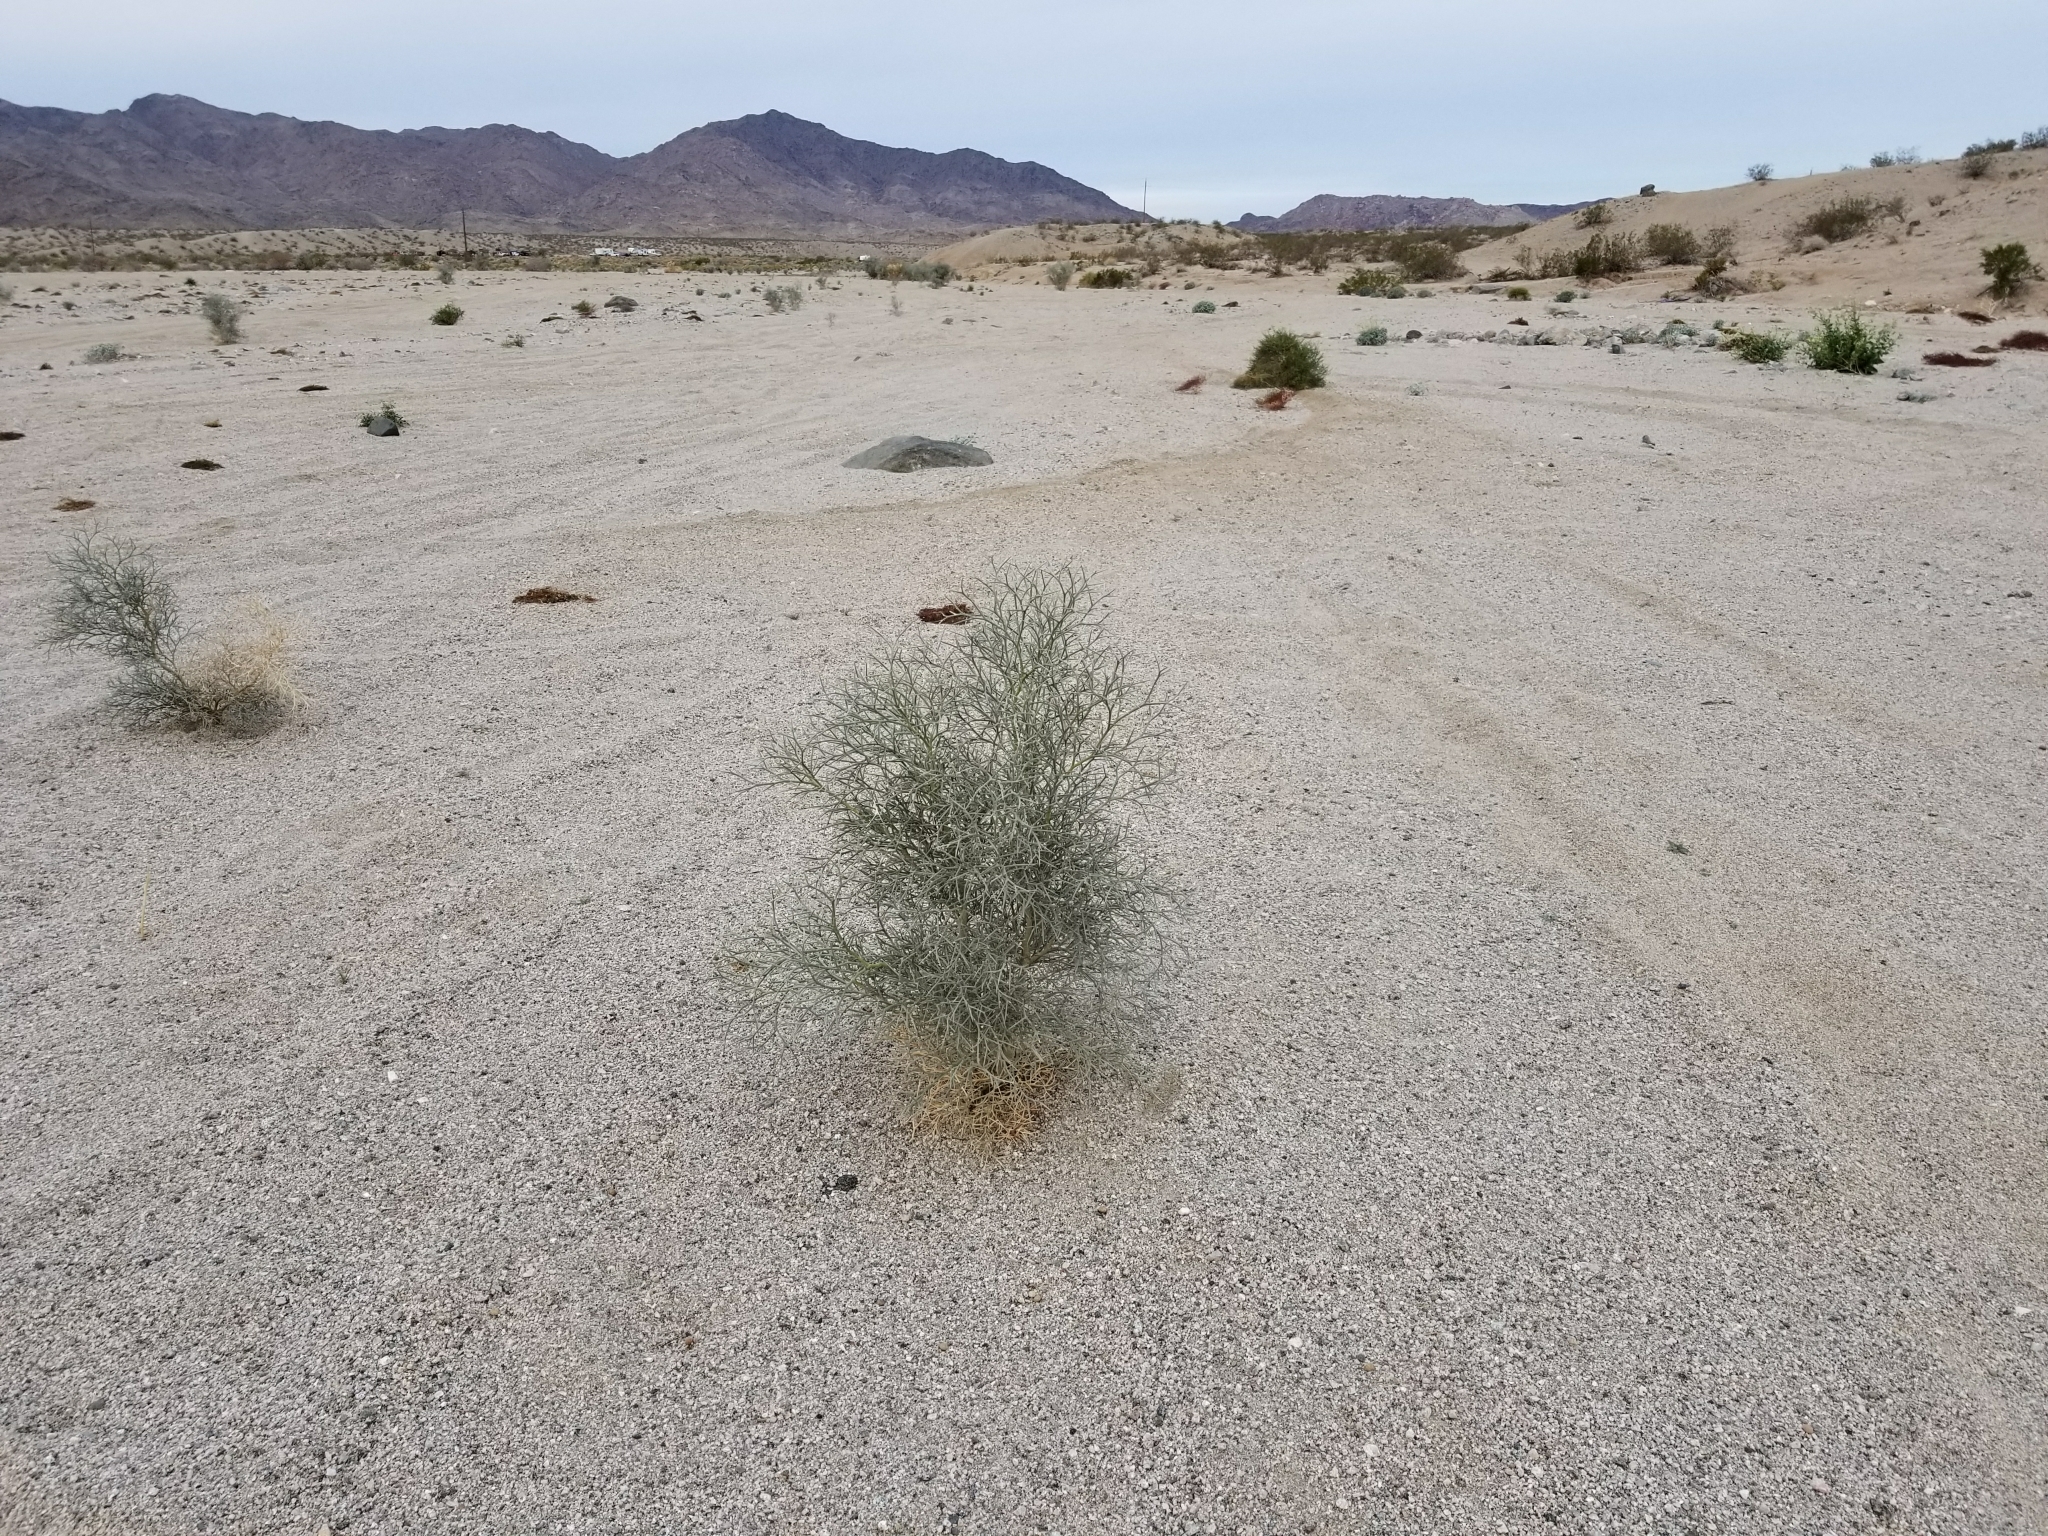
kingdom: Plantae
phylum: Tracheophyta
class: Magnoliopsida
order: Fabales
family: Fabaceae
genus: Psorothamnus
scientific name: Psorothamnus spinosus
